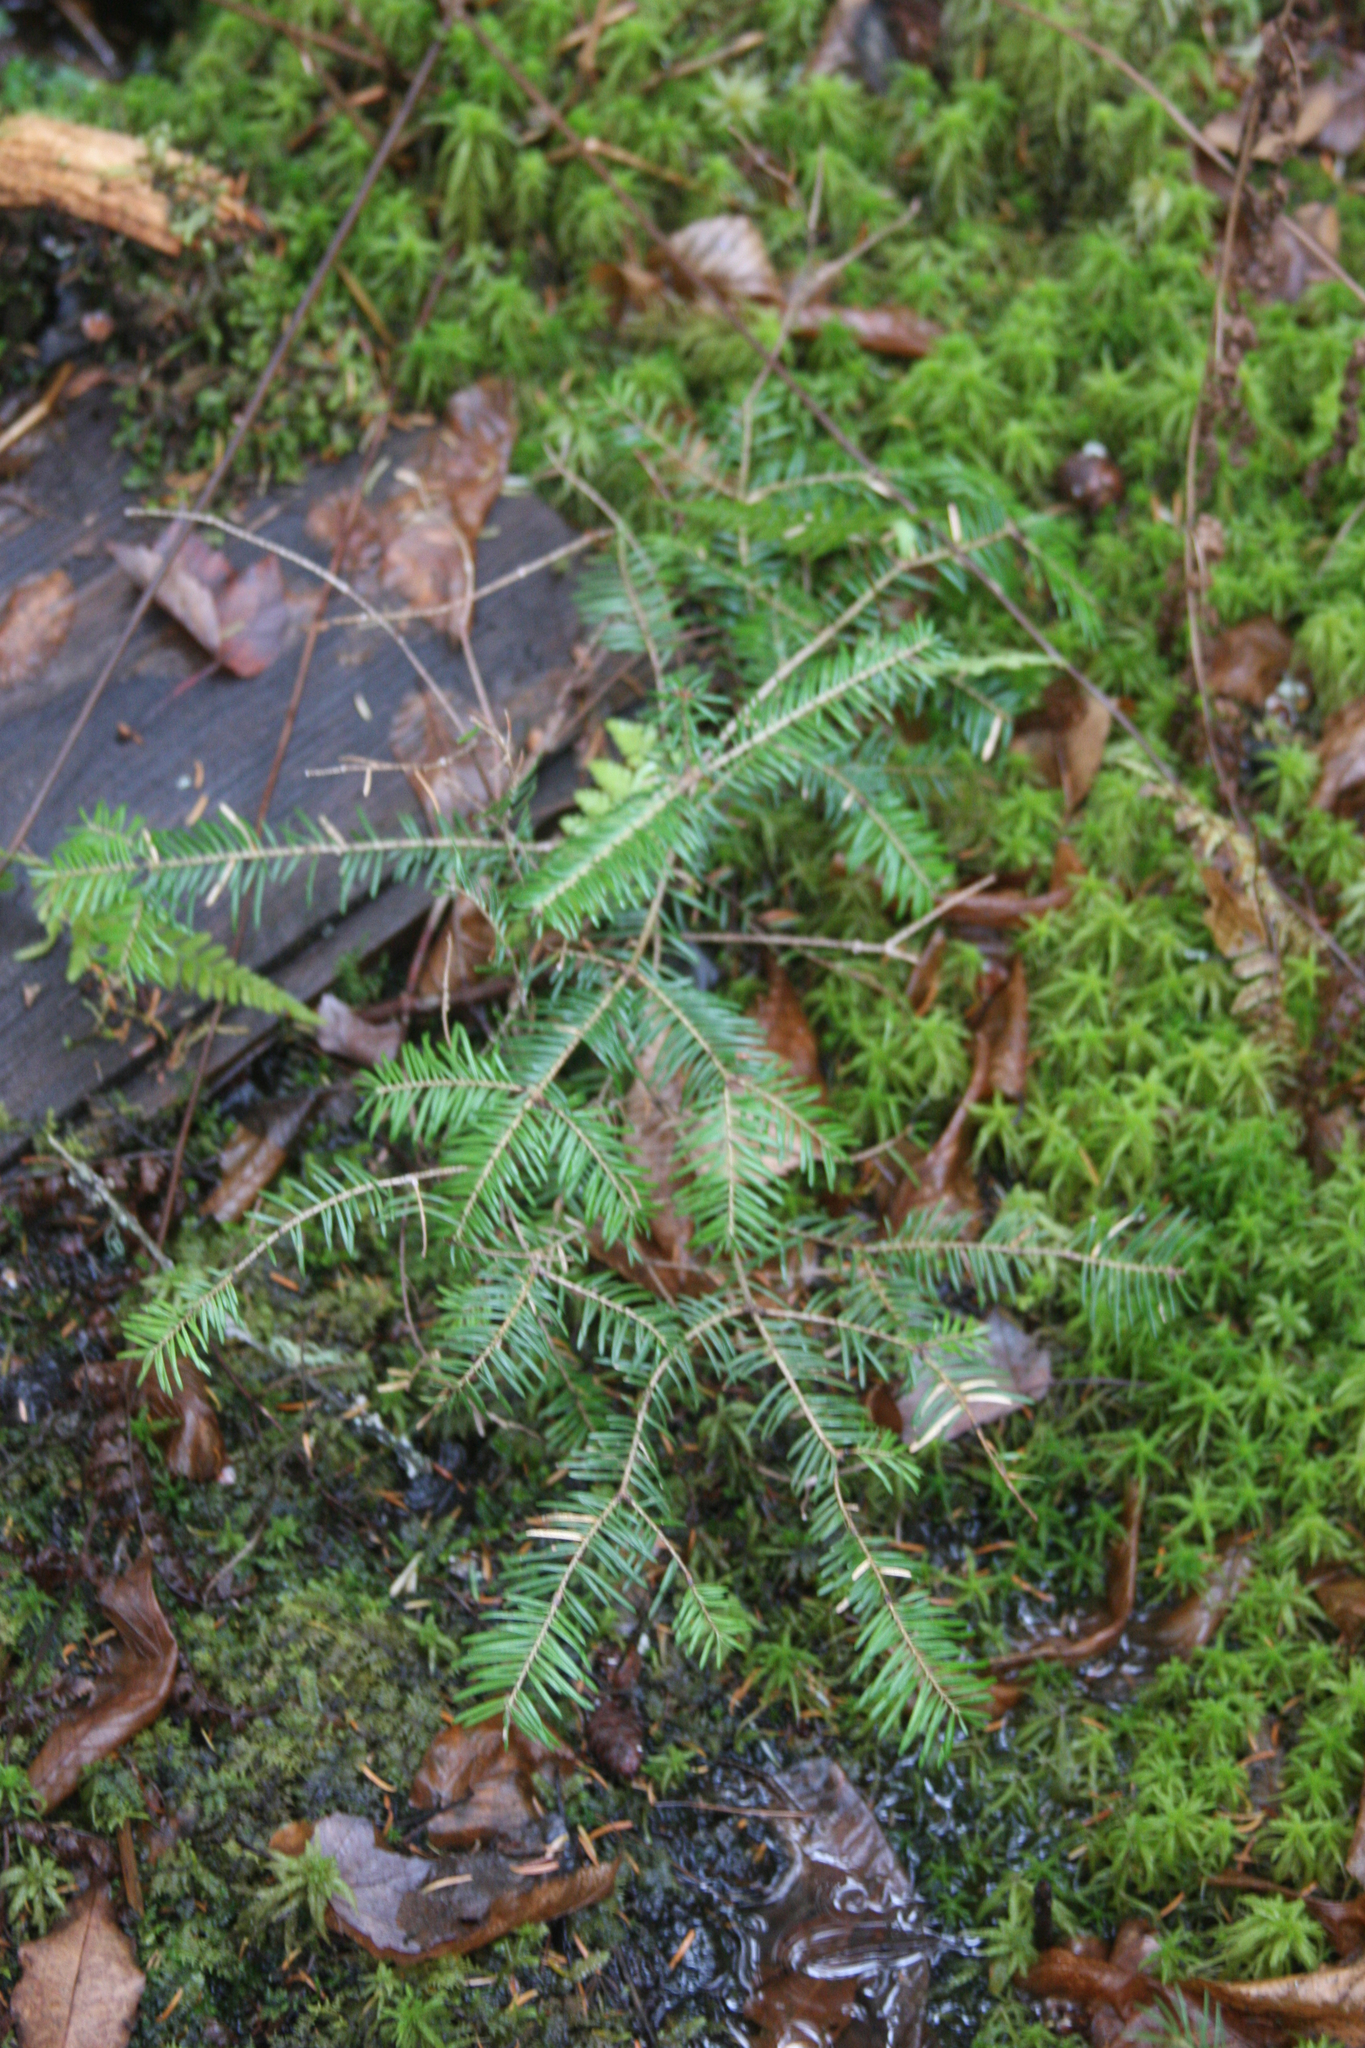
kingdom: Plantae
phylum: Tracheophyta
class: Pinopsida
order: Pinales
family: Pinaceae
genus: Abies
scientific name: Abies balsamea
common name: Balsam fir
